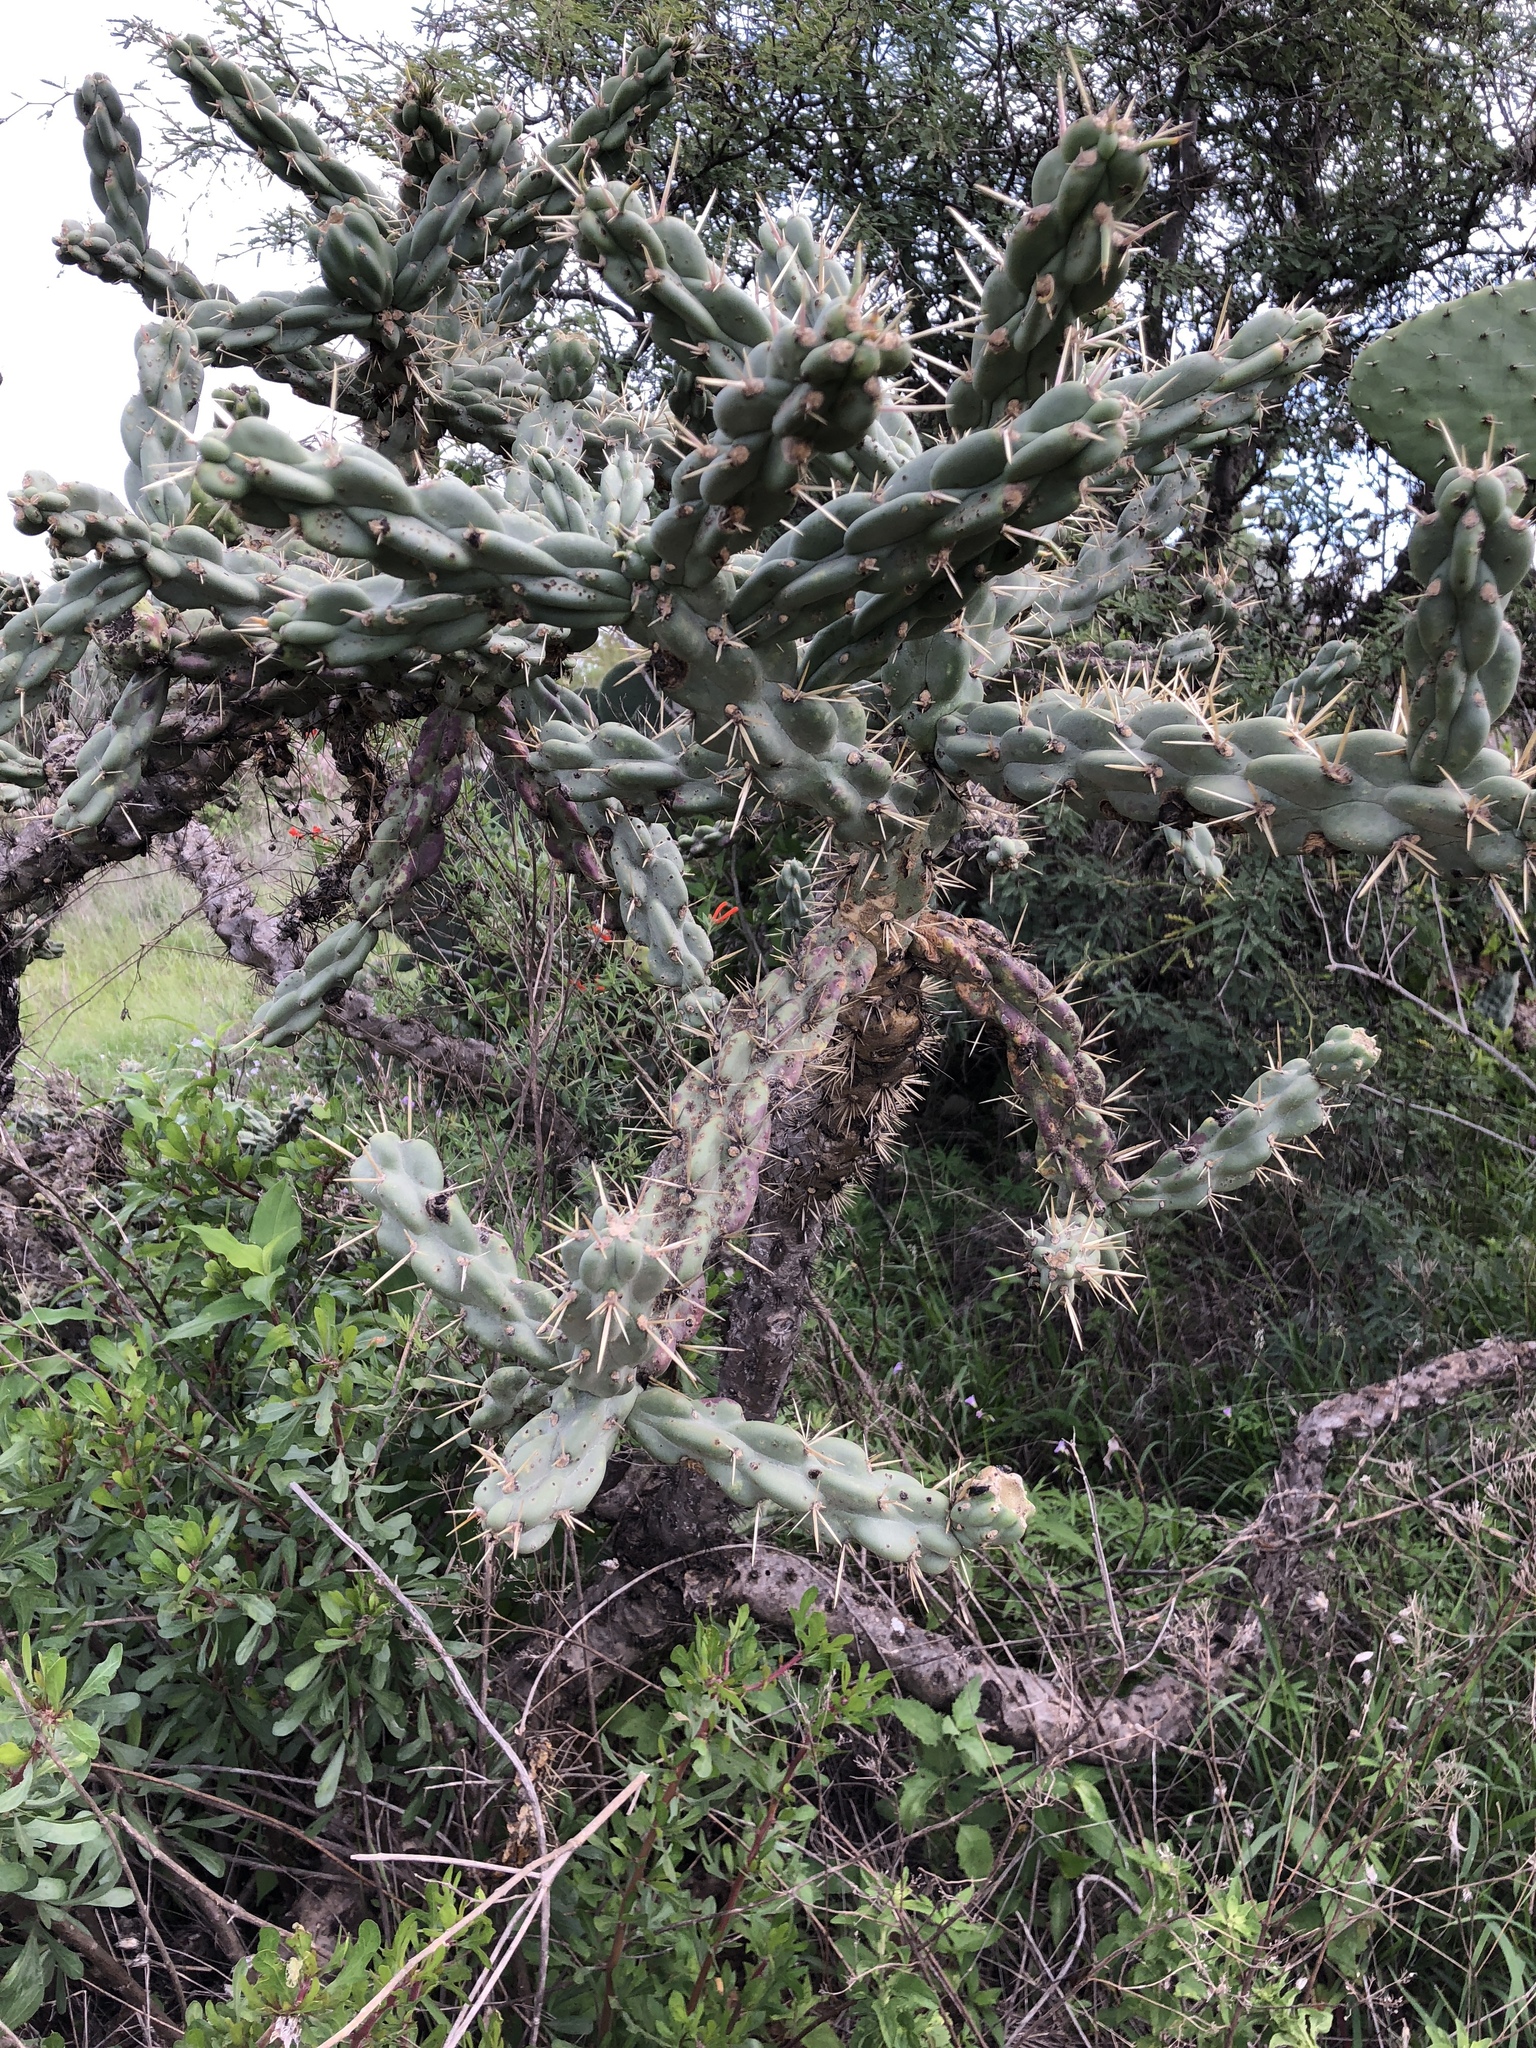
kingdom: Plantae
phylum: Tracheophyta
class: Magnoliopsida
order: Caryophyllales
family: Cactaceae
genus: Cylindropuntia
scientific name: Cylindropuntia imbricata
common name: Candelabrum cactus
